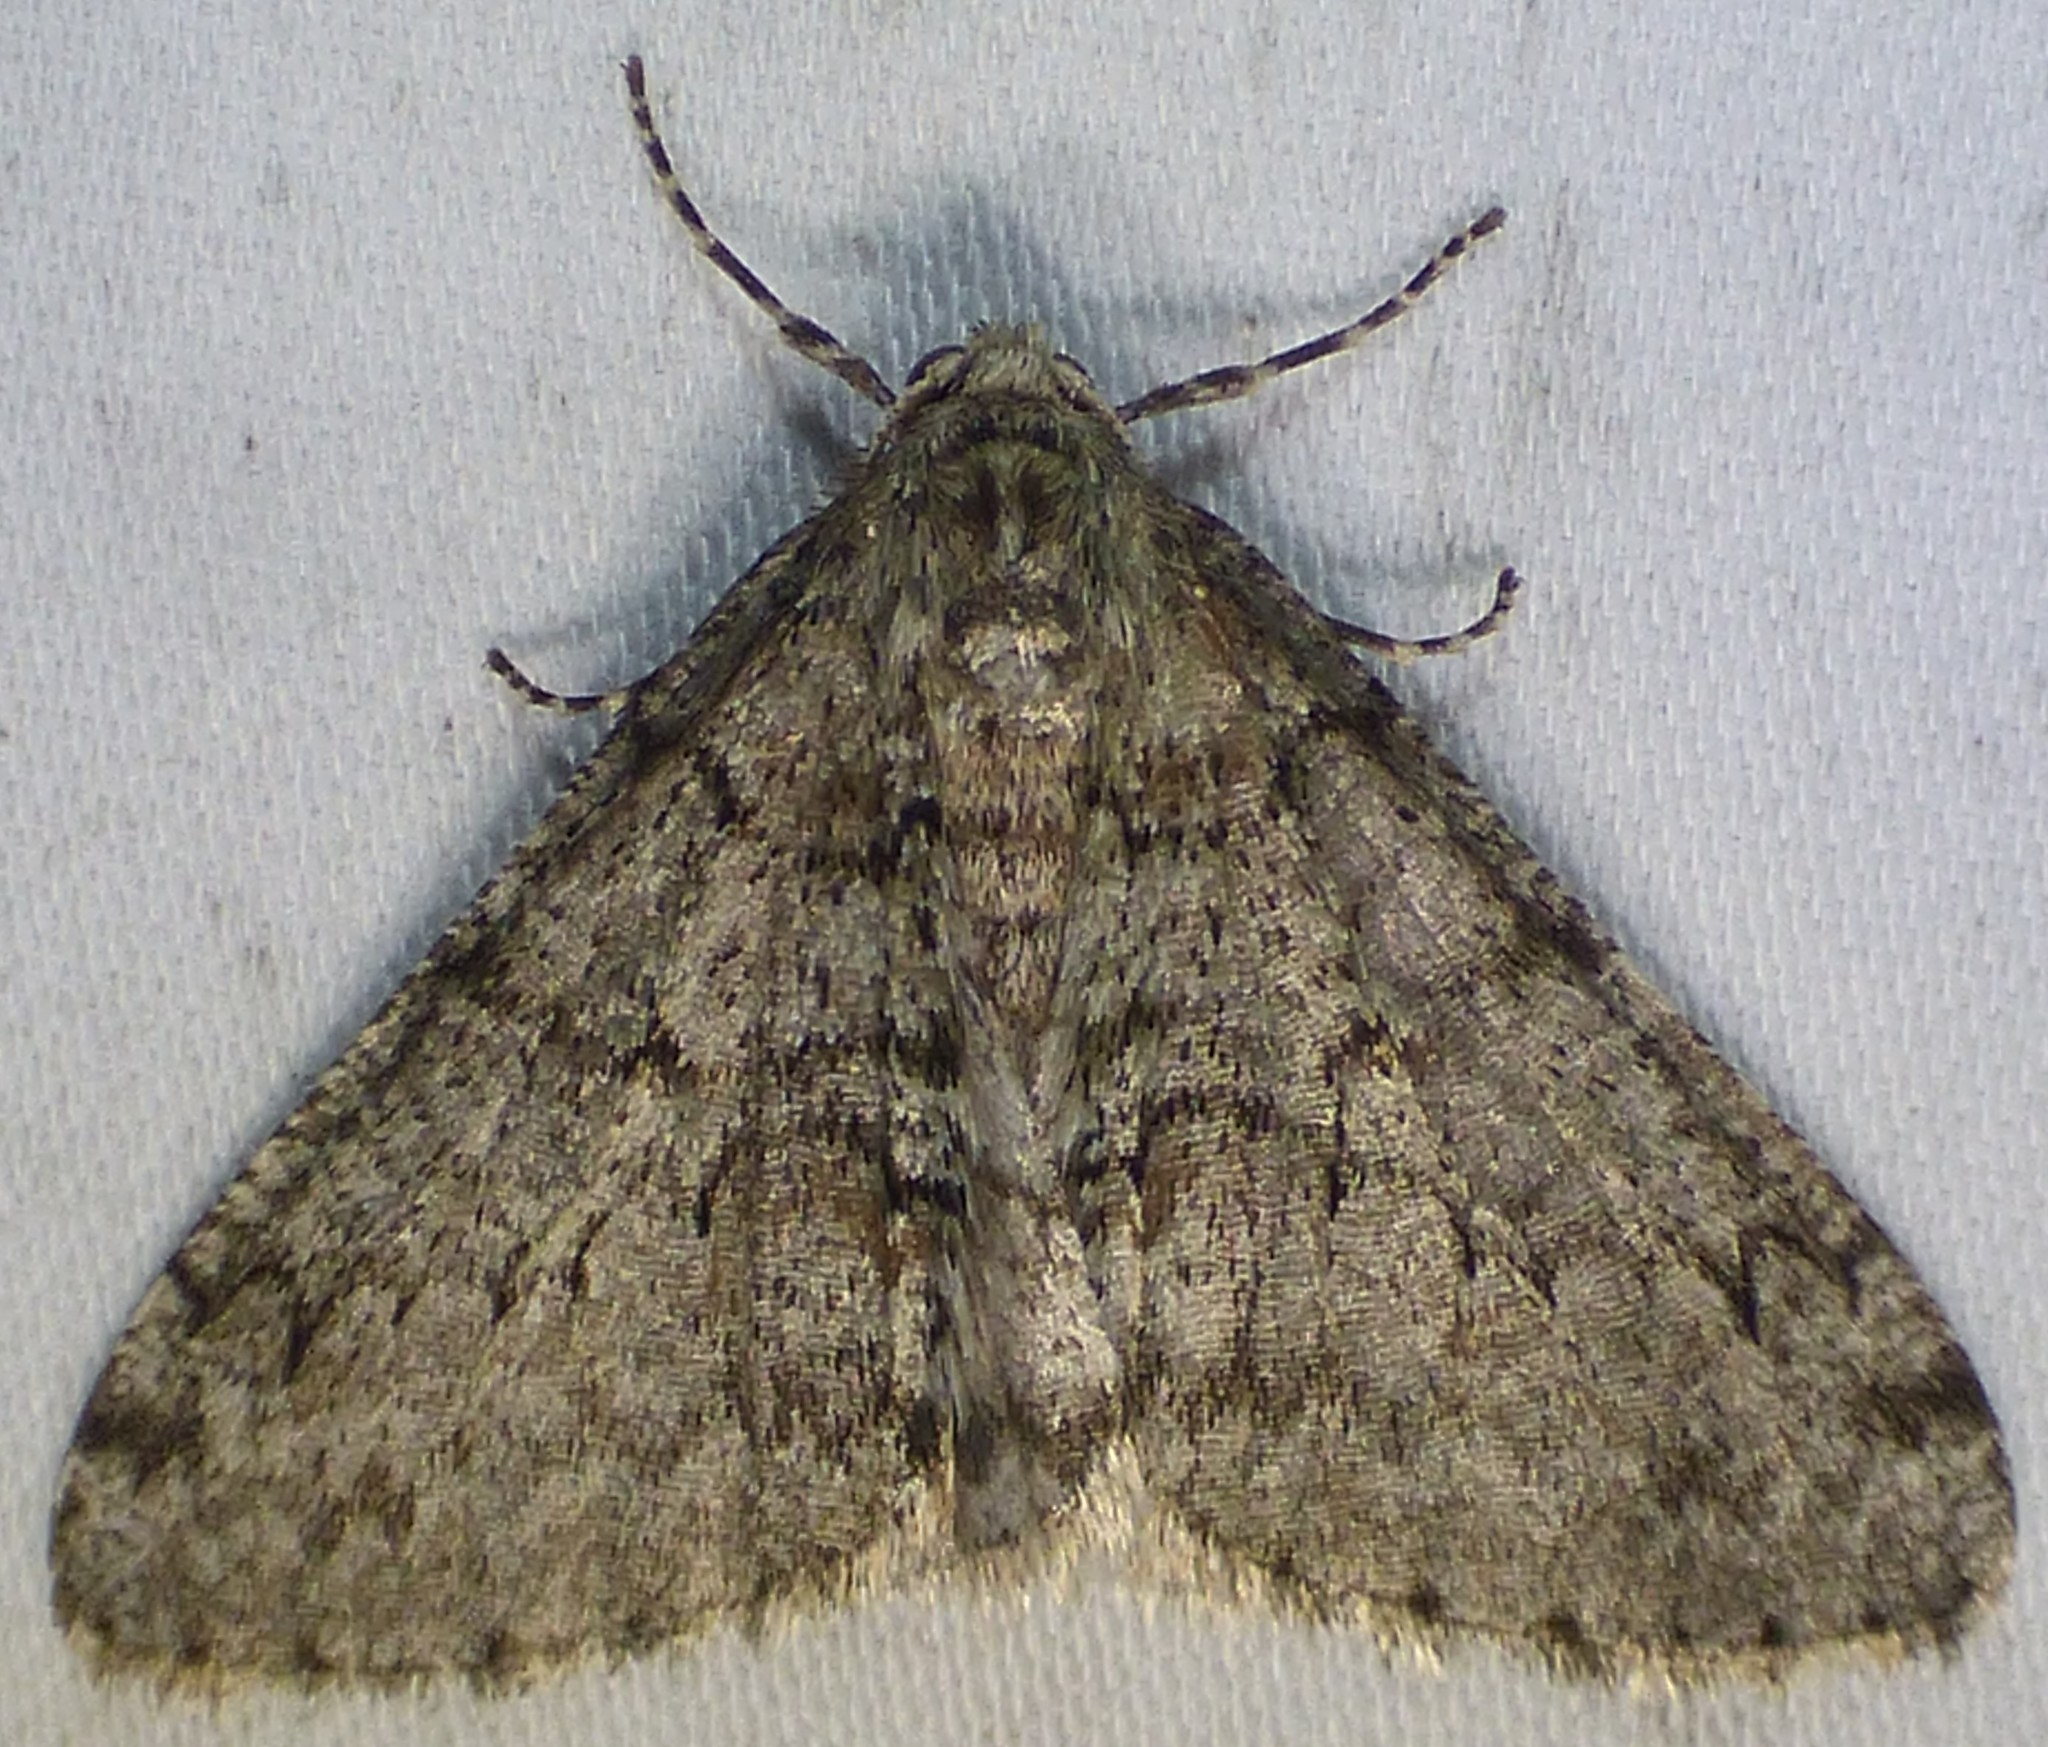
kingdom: Animalia
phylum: Arthropoda
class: Insecta
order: Lepidoptera
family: Geometridae
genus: Phigalia
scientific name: Phigalia strigataria
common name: Small phigalia
